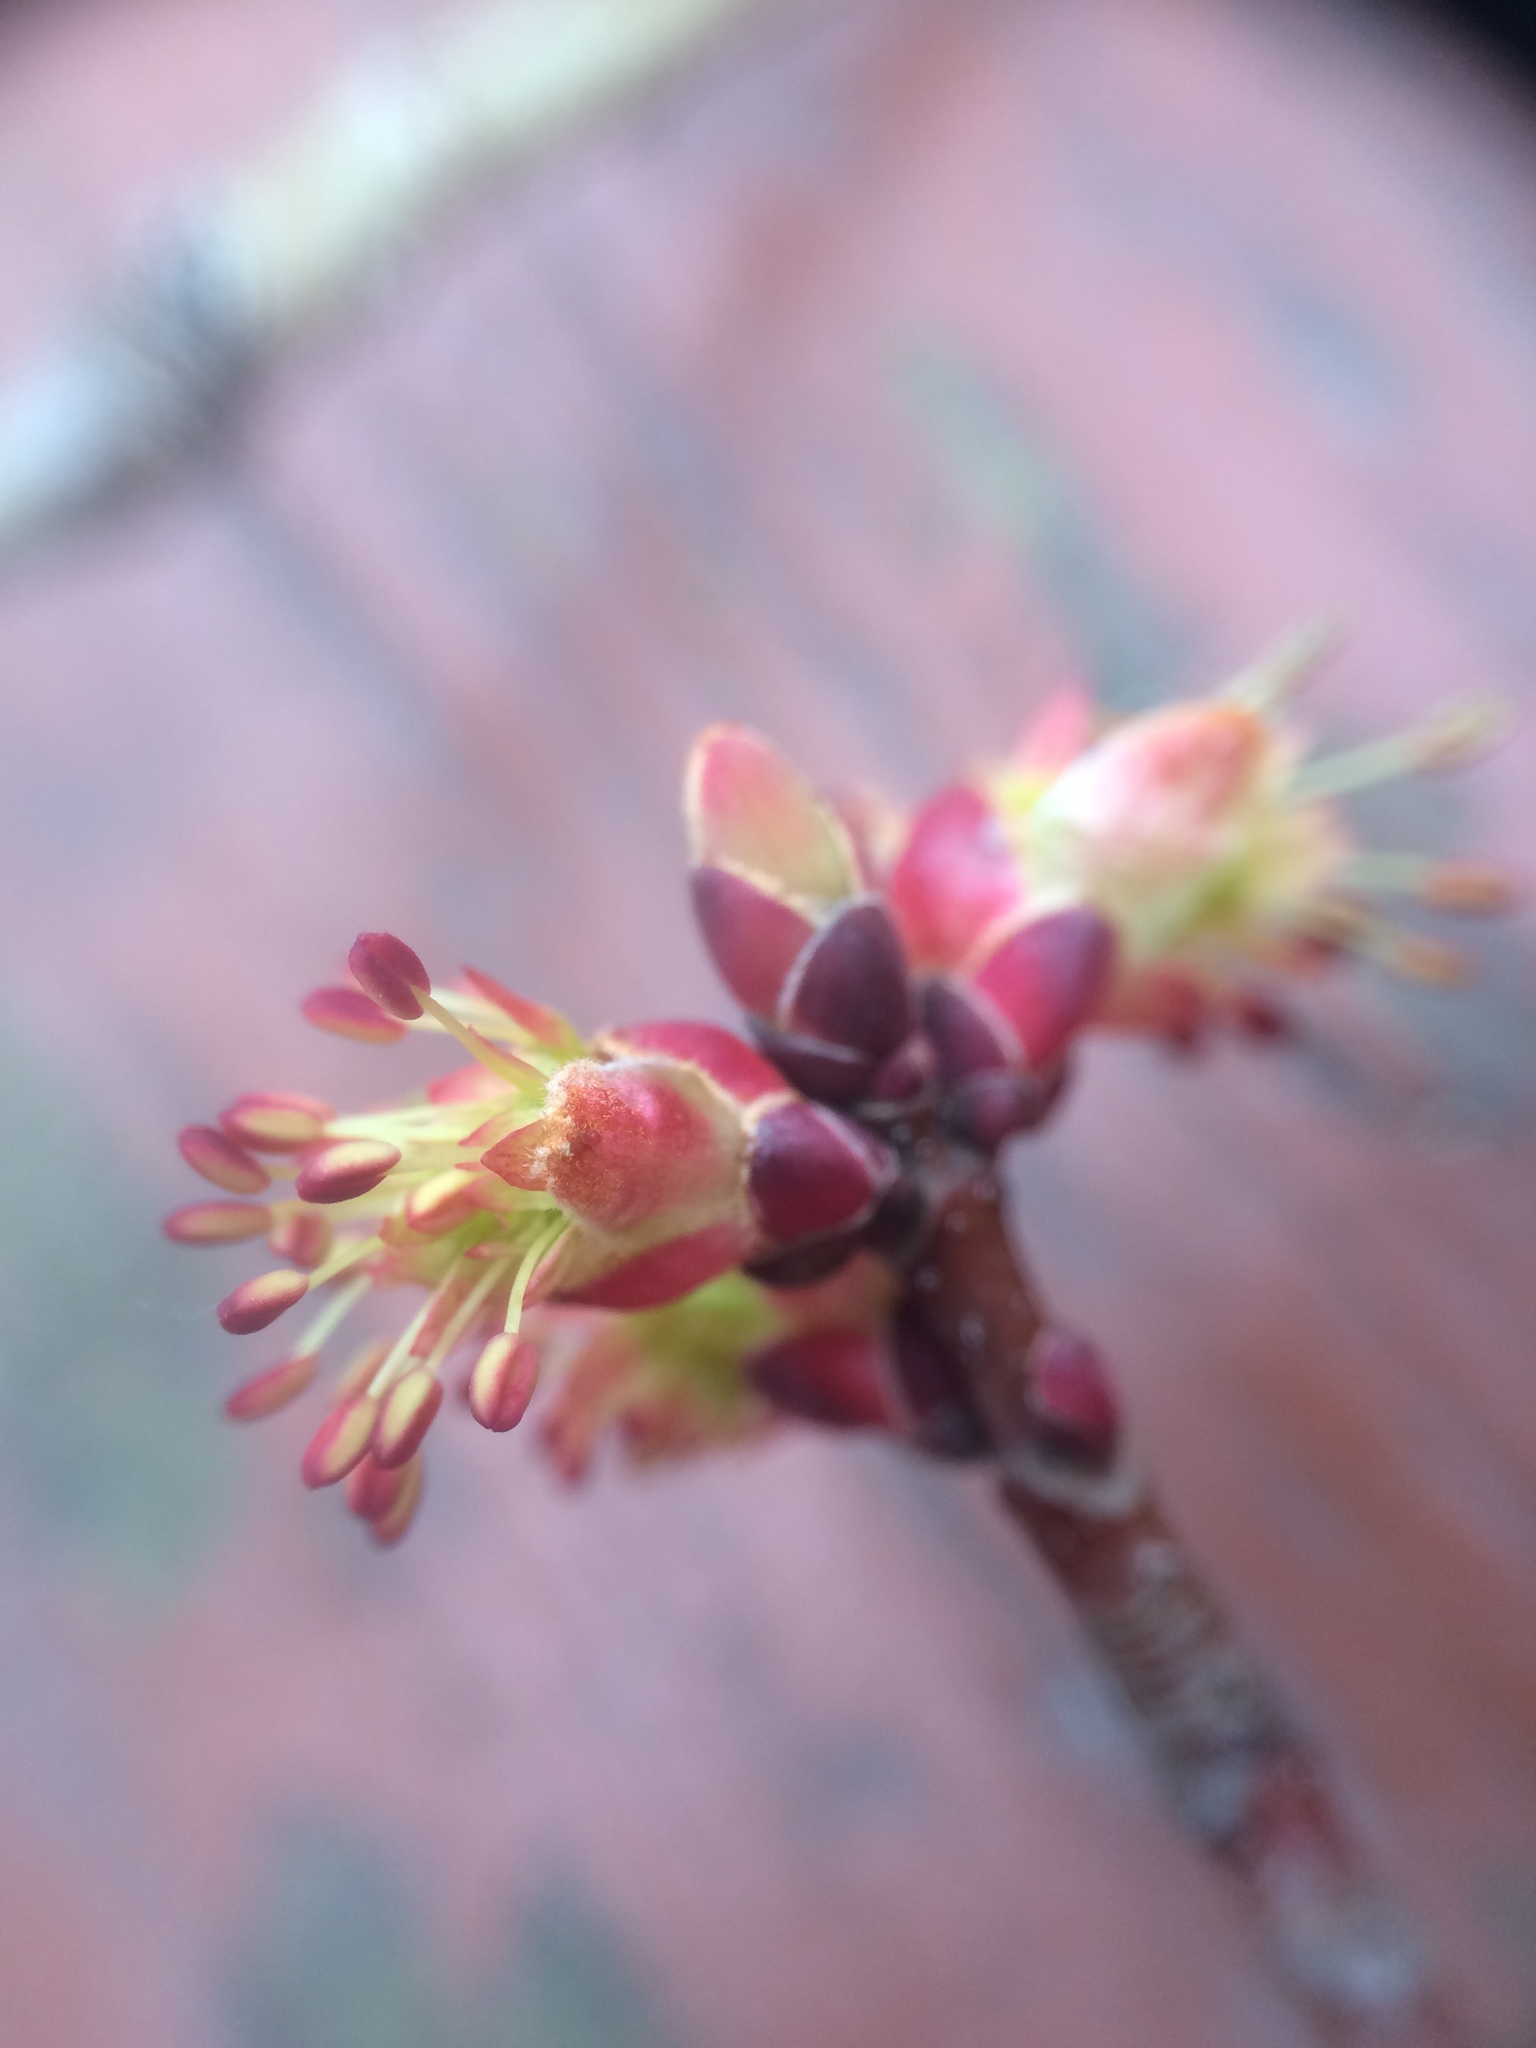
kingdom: Plantae
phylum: Tracheophyta
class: Magnoliopsida
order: Sapindales
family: Sapindaceae
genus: Acer
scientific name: Acer rubrum
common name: Red maple
